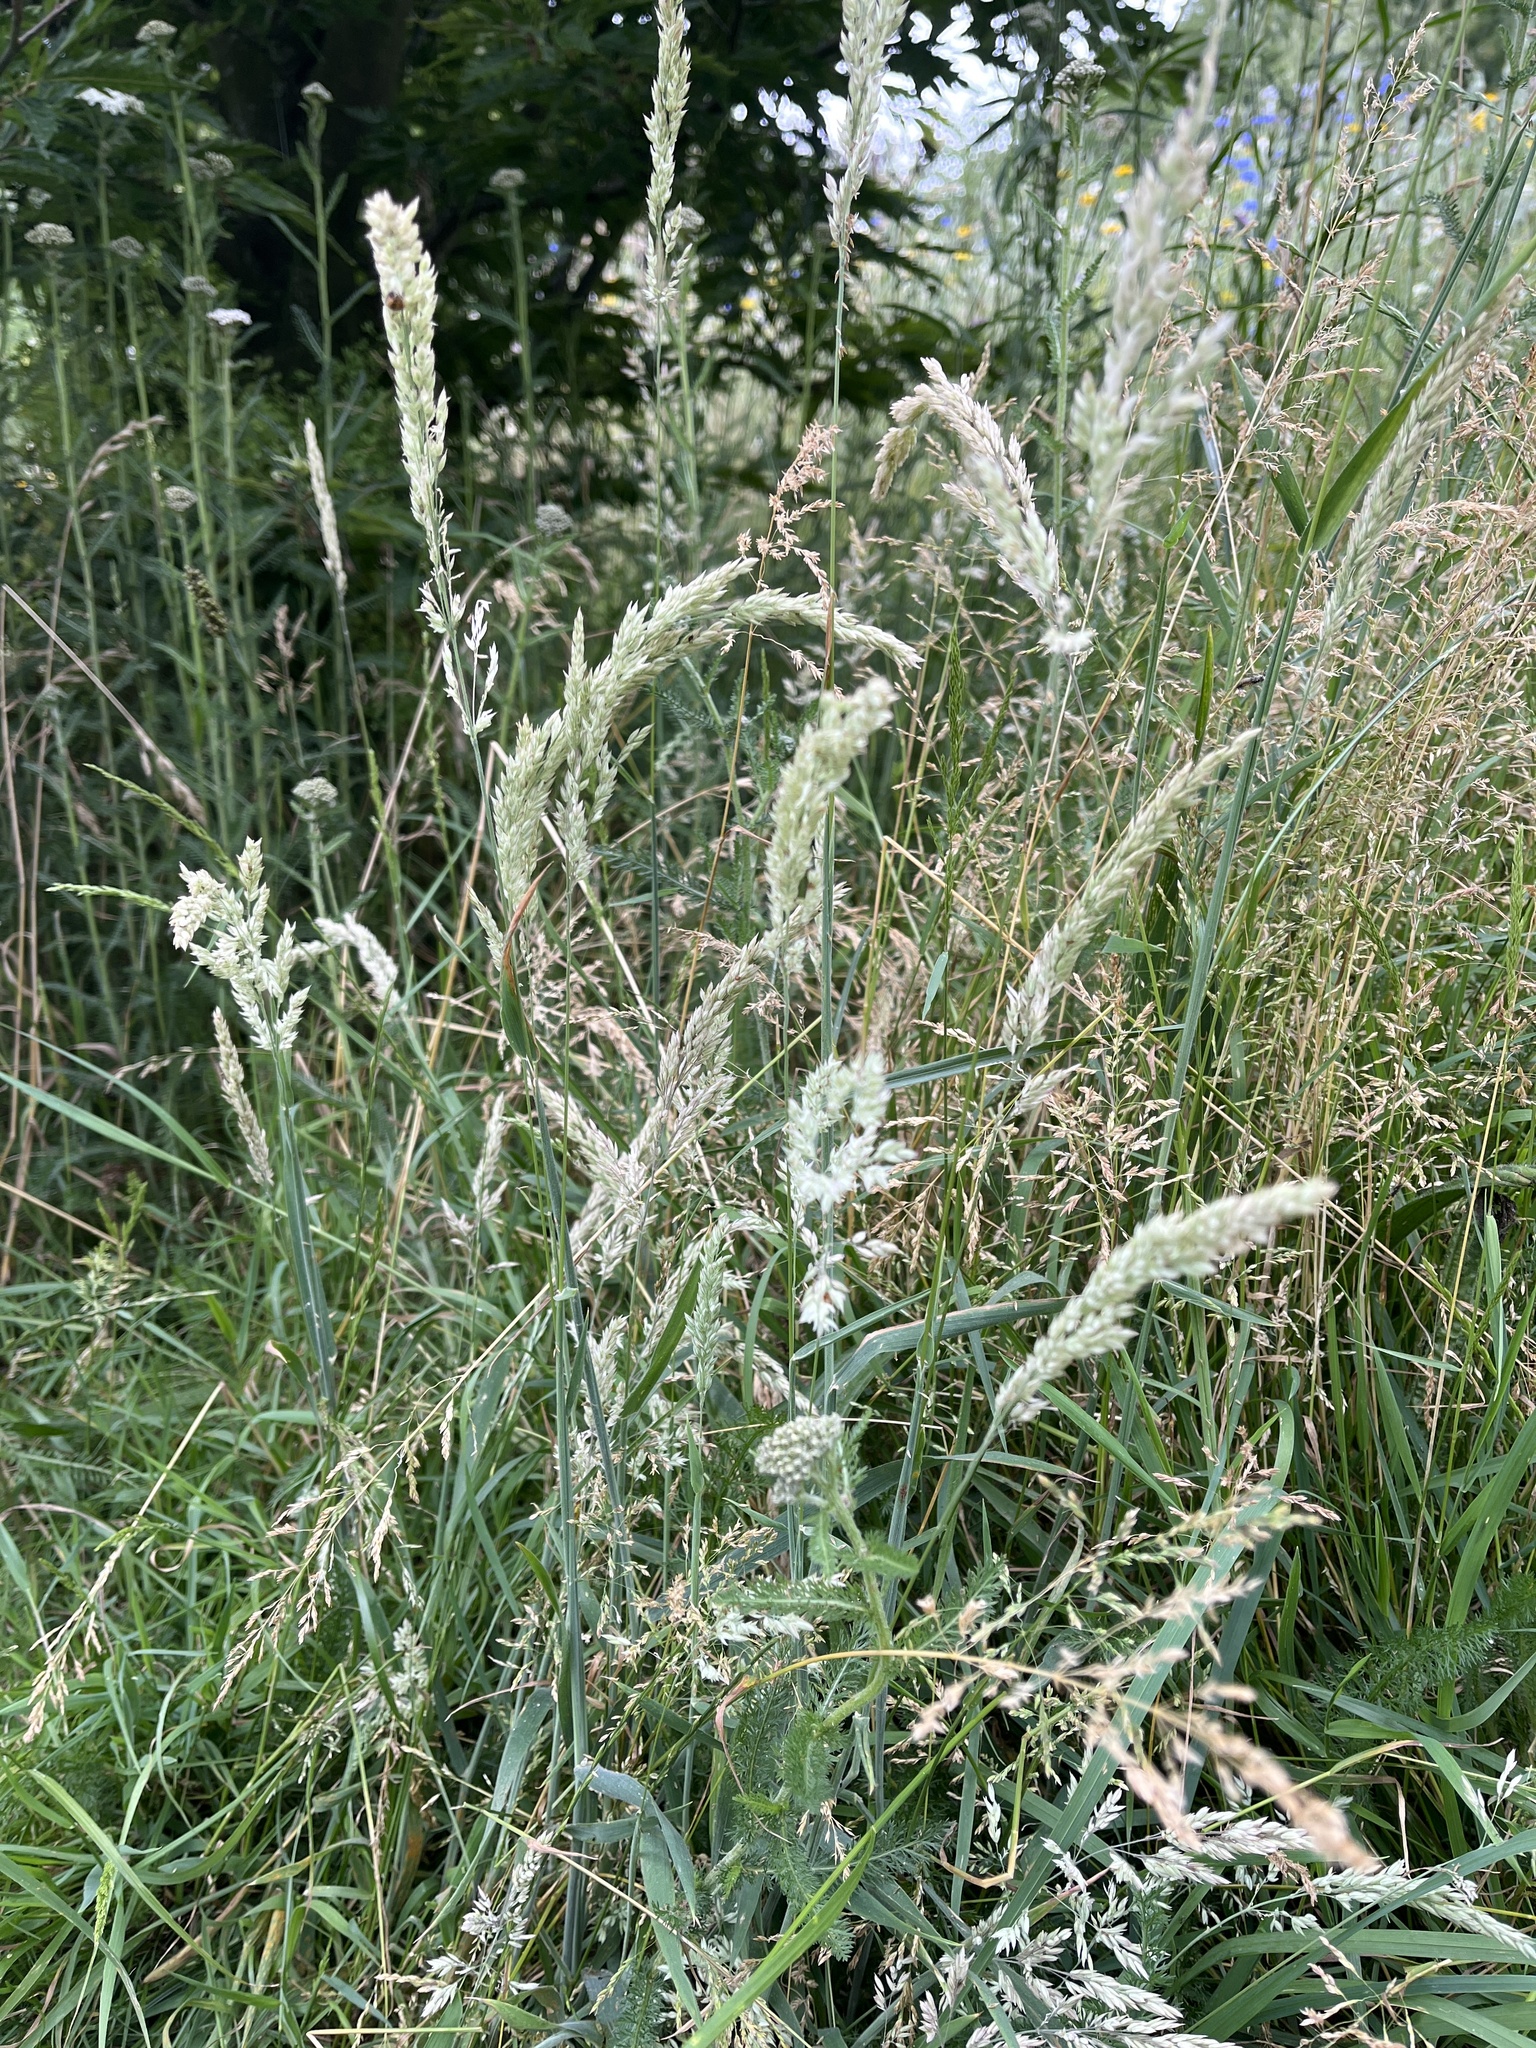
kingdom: Plantae
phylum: Tracheophyta
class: Liliopsida
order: Poales
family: Poaceae
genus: Holcus
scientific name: Holcus lanatus
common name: Yorkshire-fog
